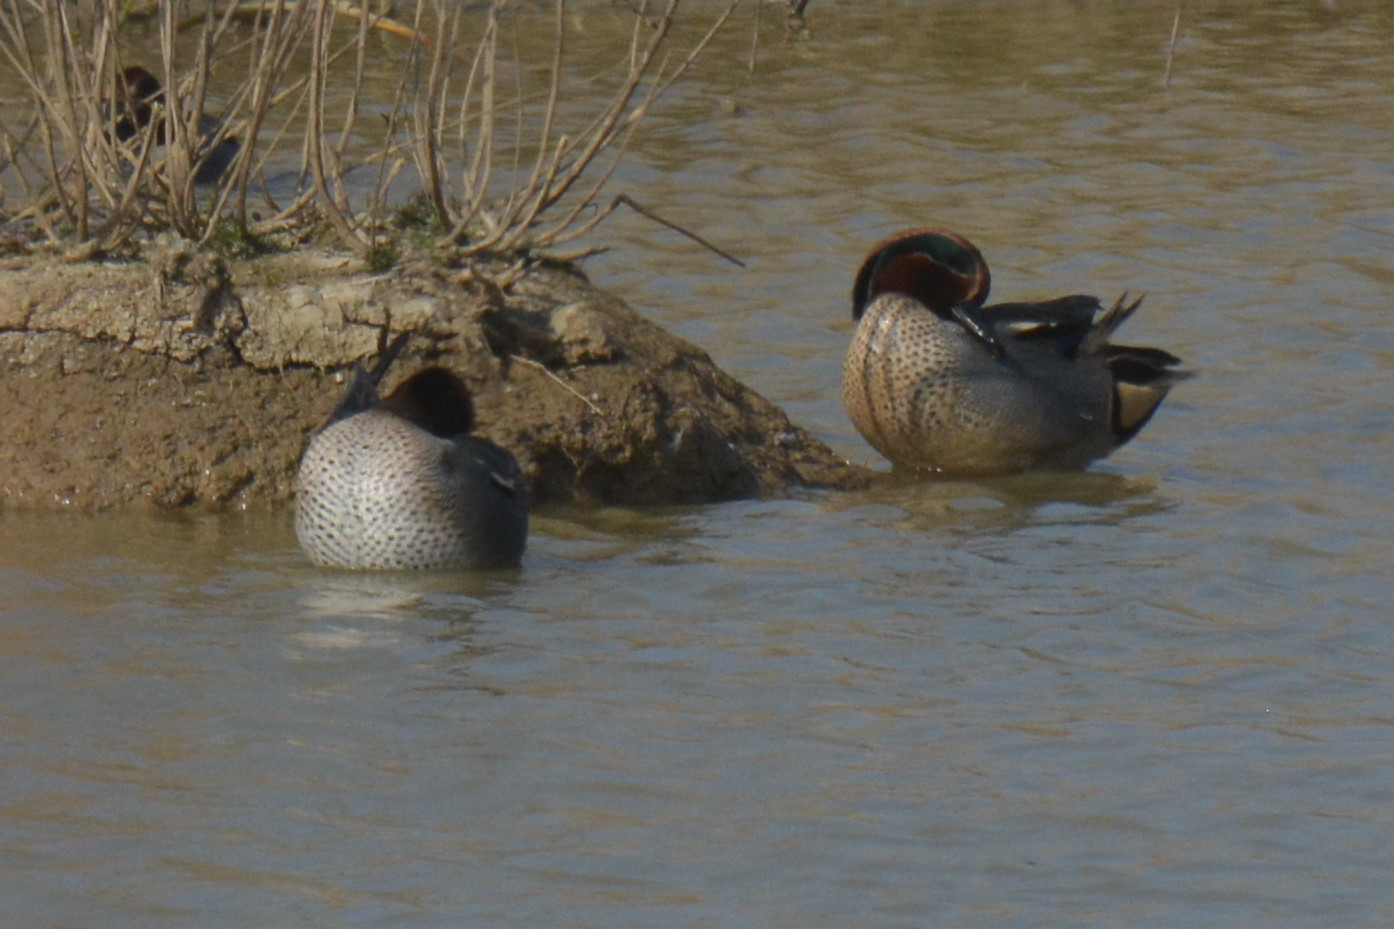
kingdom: Animalia
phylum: Chordata
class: Aves
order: Anseriformes
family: Anatidae
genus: Anas
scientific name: Anas crecca
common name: Eurasian teal
